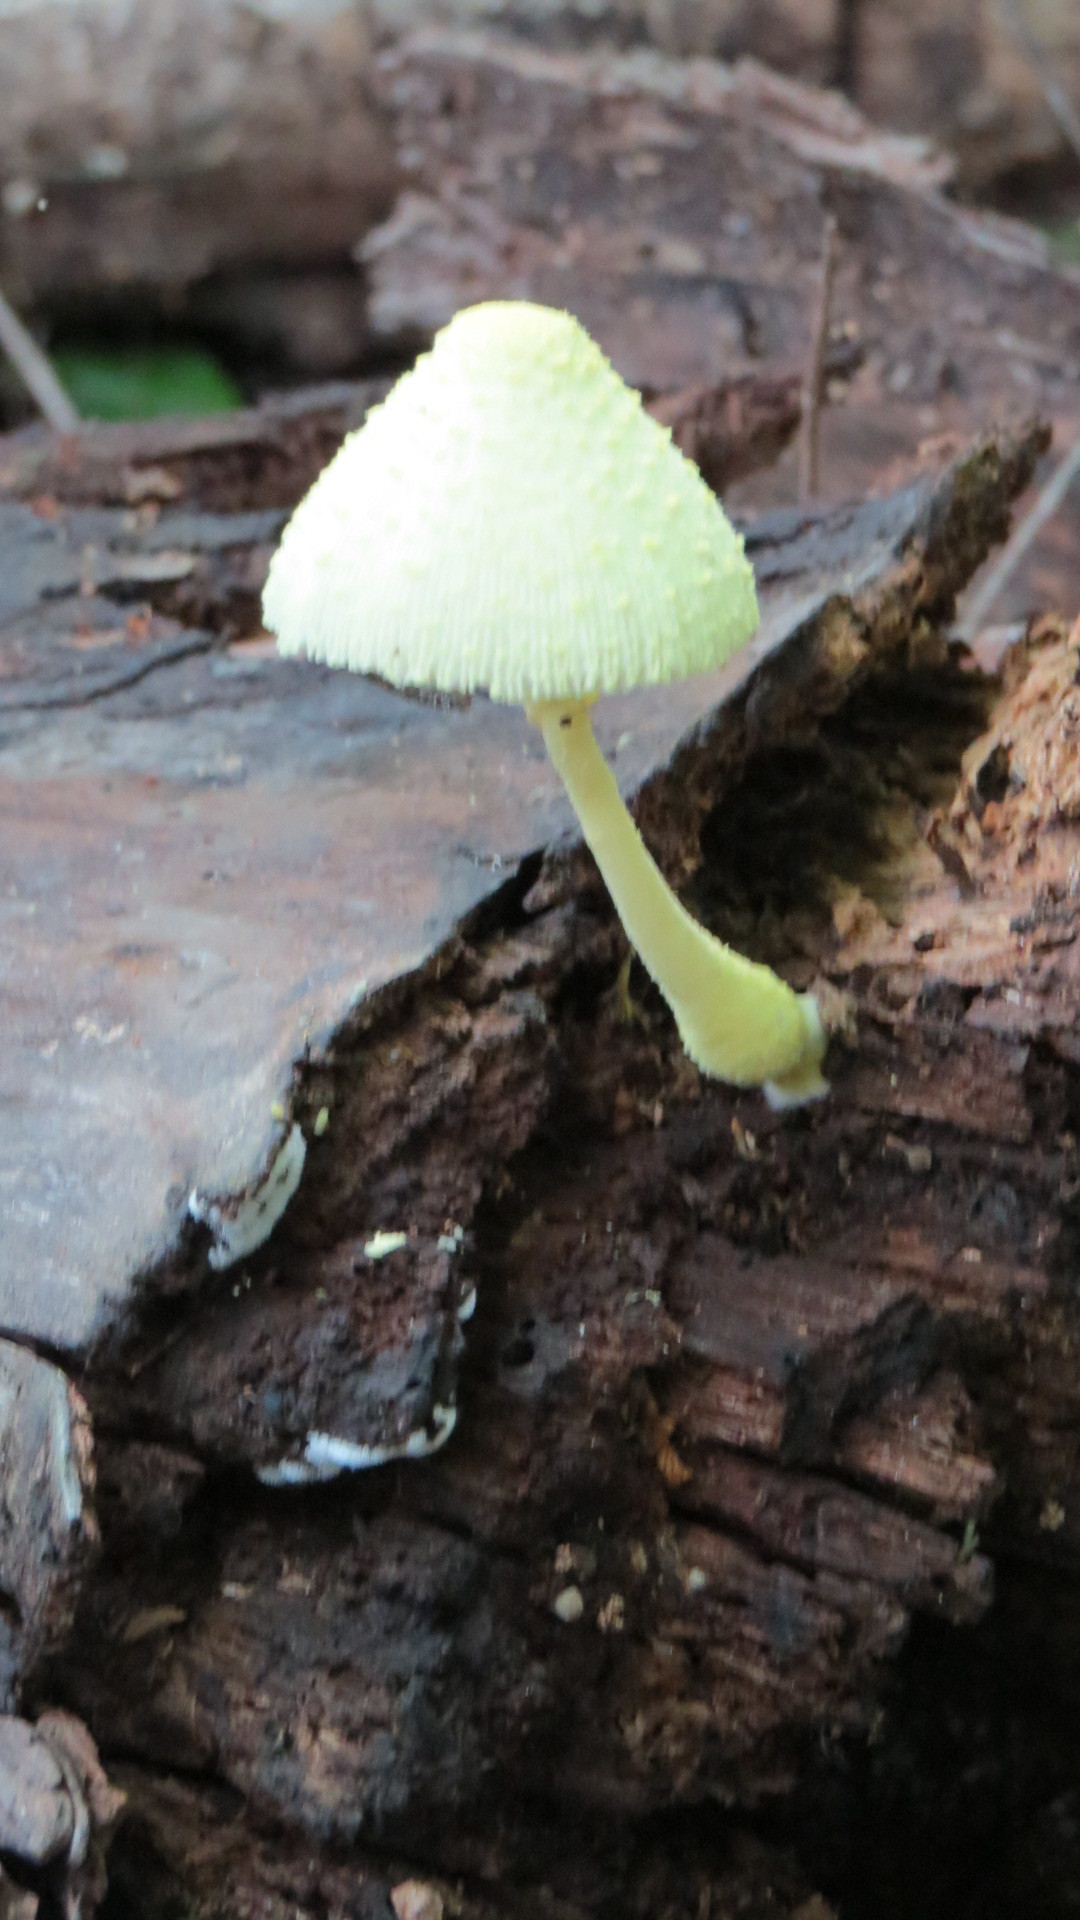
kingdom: Fungi
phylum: Basidiomycota
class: Agaricomycetes
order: Agaricales
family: Agaricaceae
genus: Leucocoprinus
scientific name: Leucocoprinus birnbaumii
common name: Plantpot dapperling
